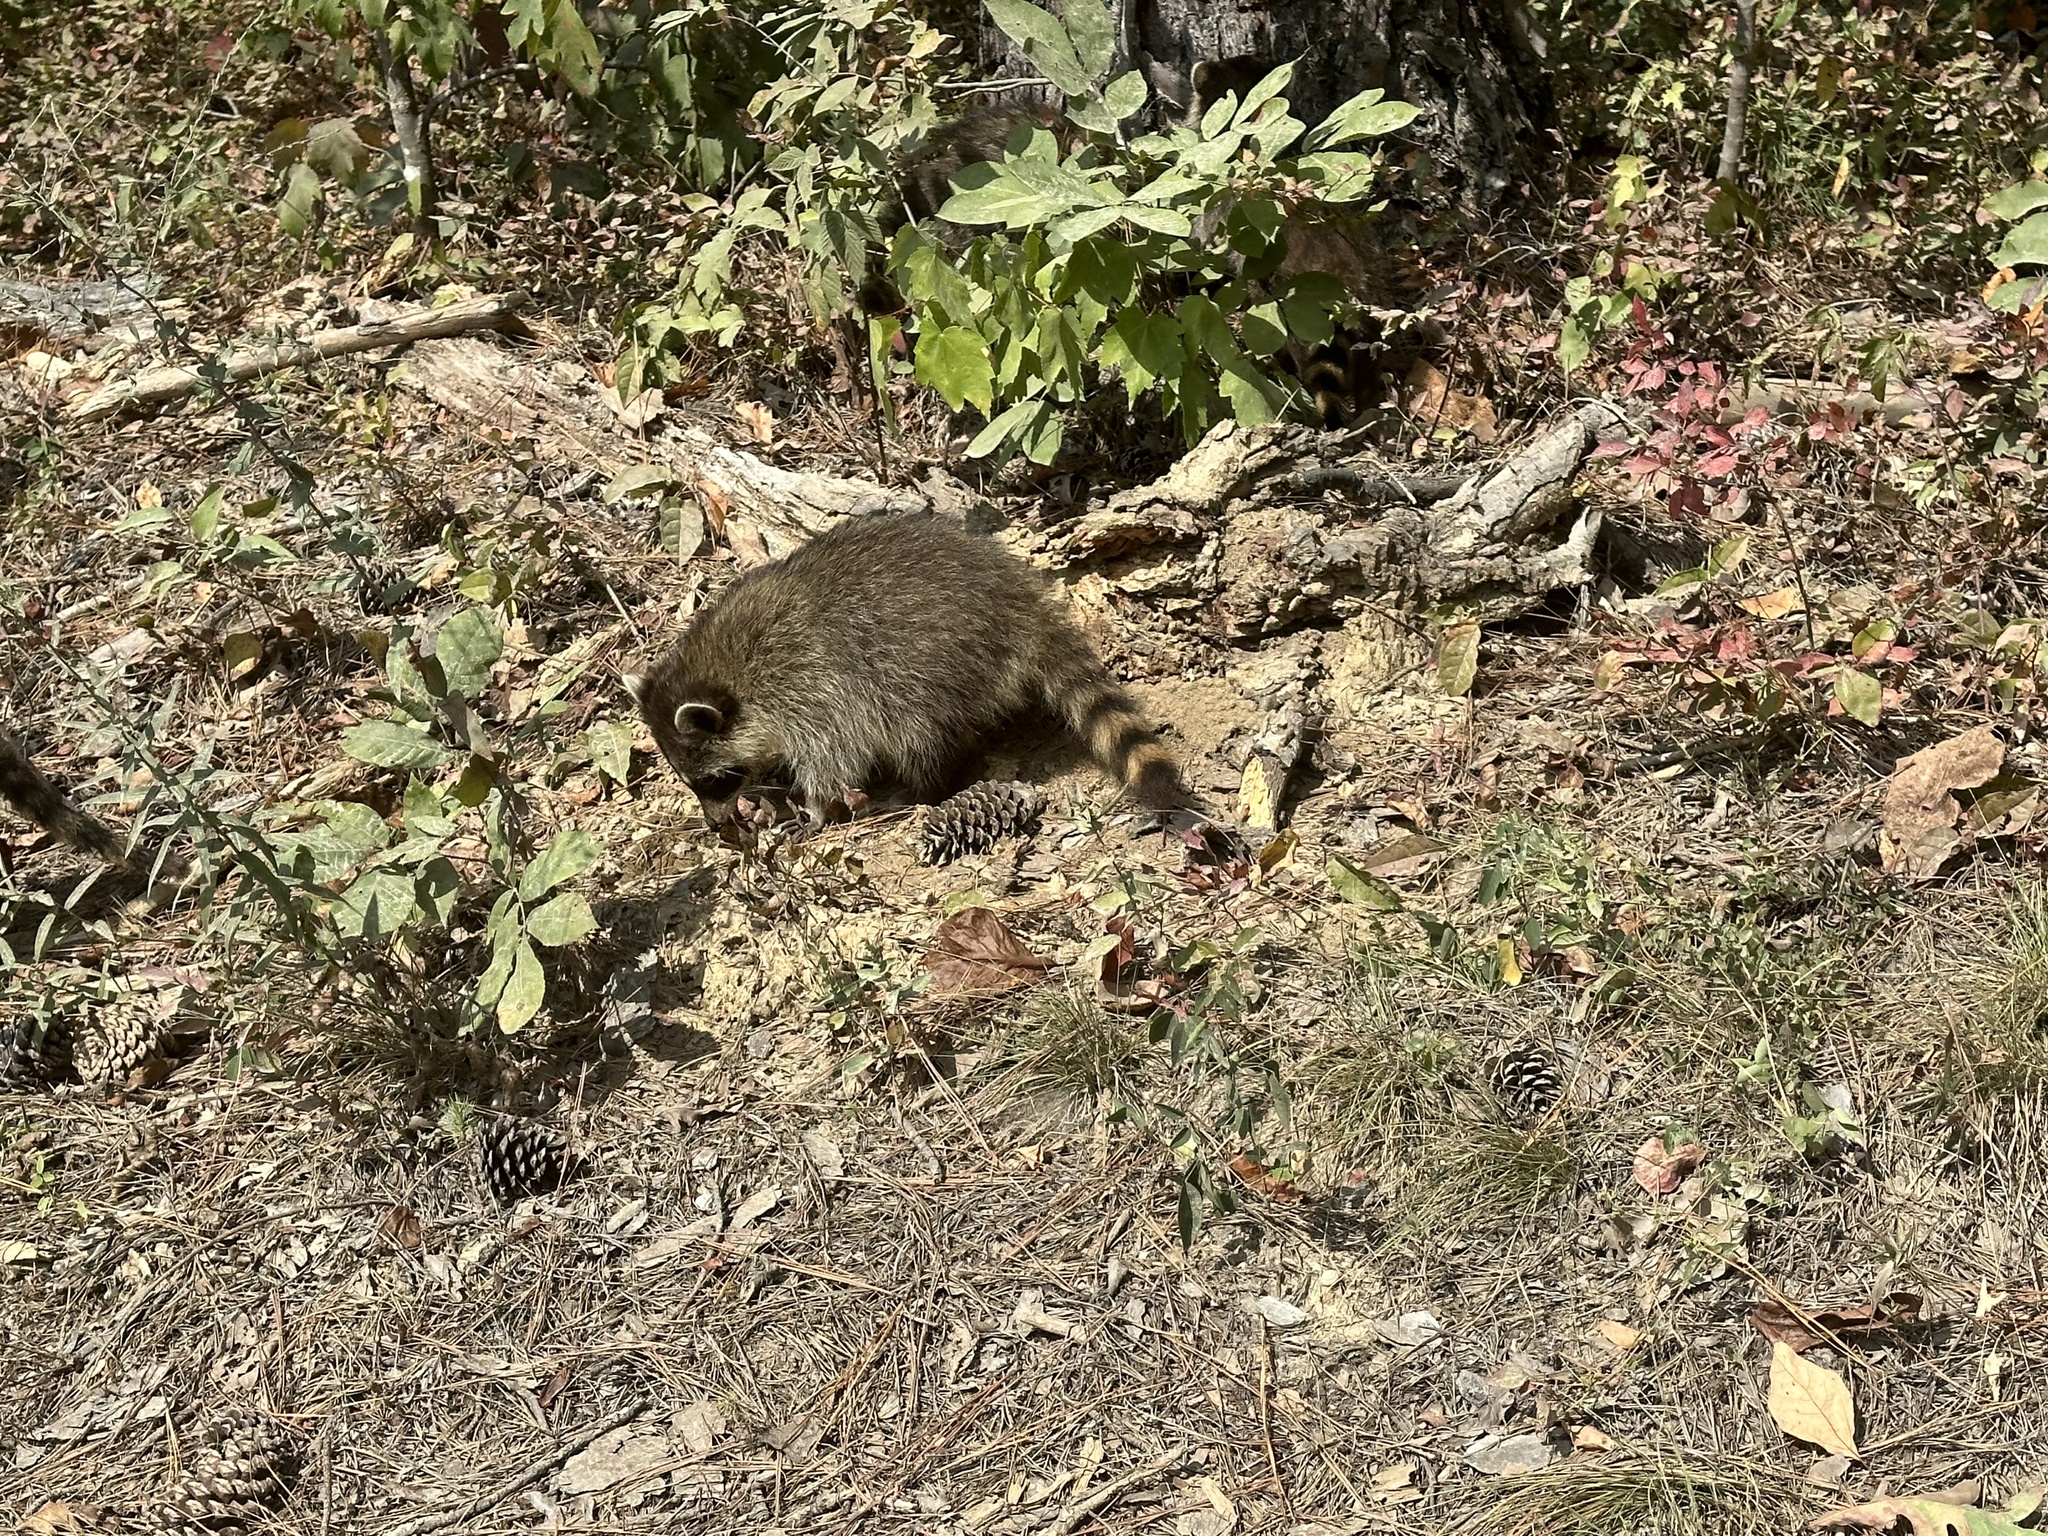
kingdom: Animalia
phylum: Chordata
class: Mammalia
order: Carnivora
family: Procyonidae
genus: Procyon
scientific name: Procyon lotor
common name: Raccoon
